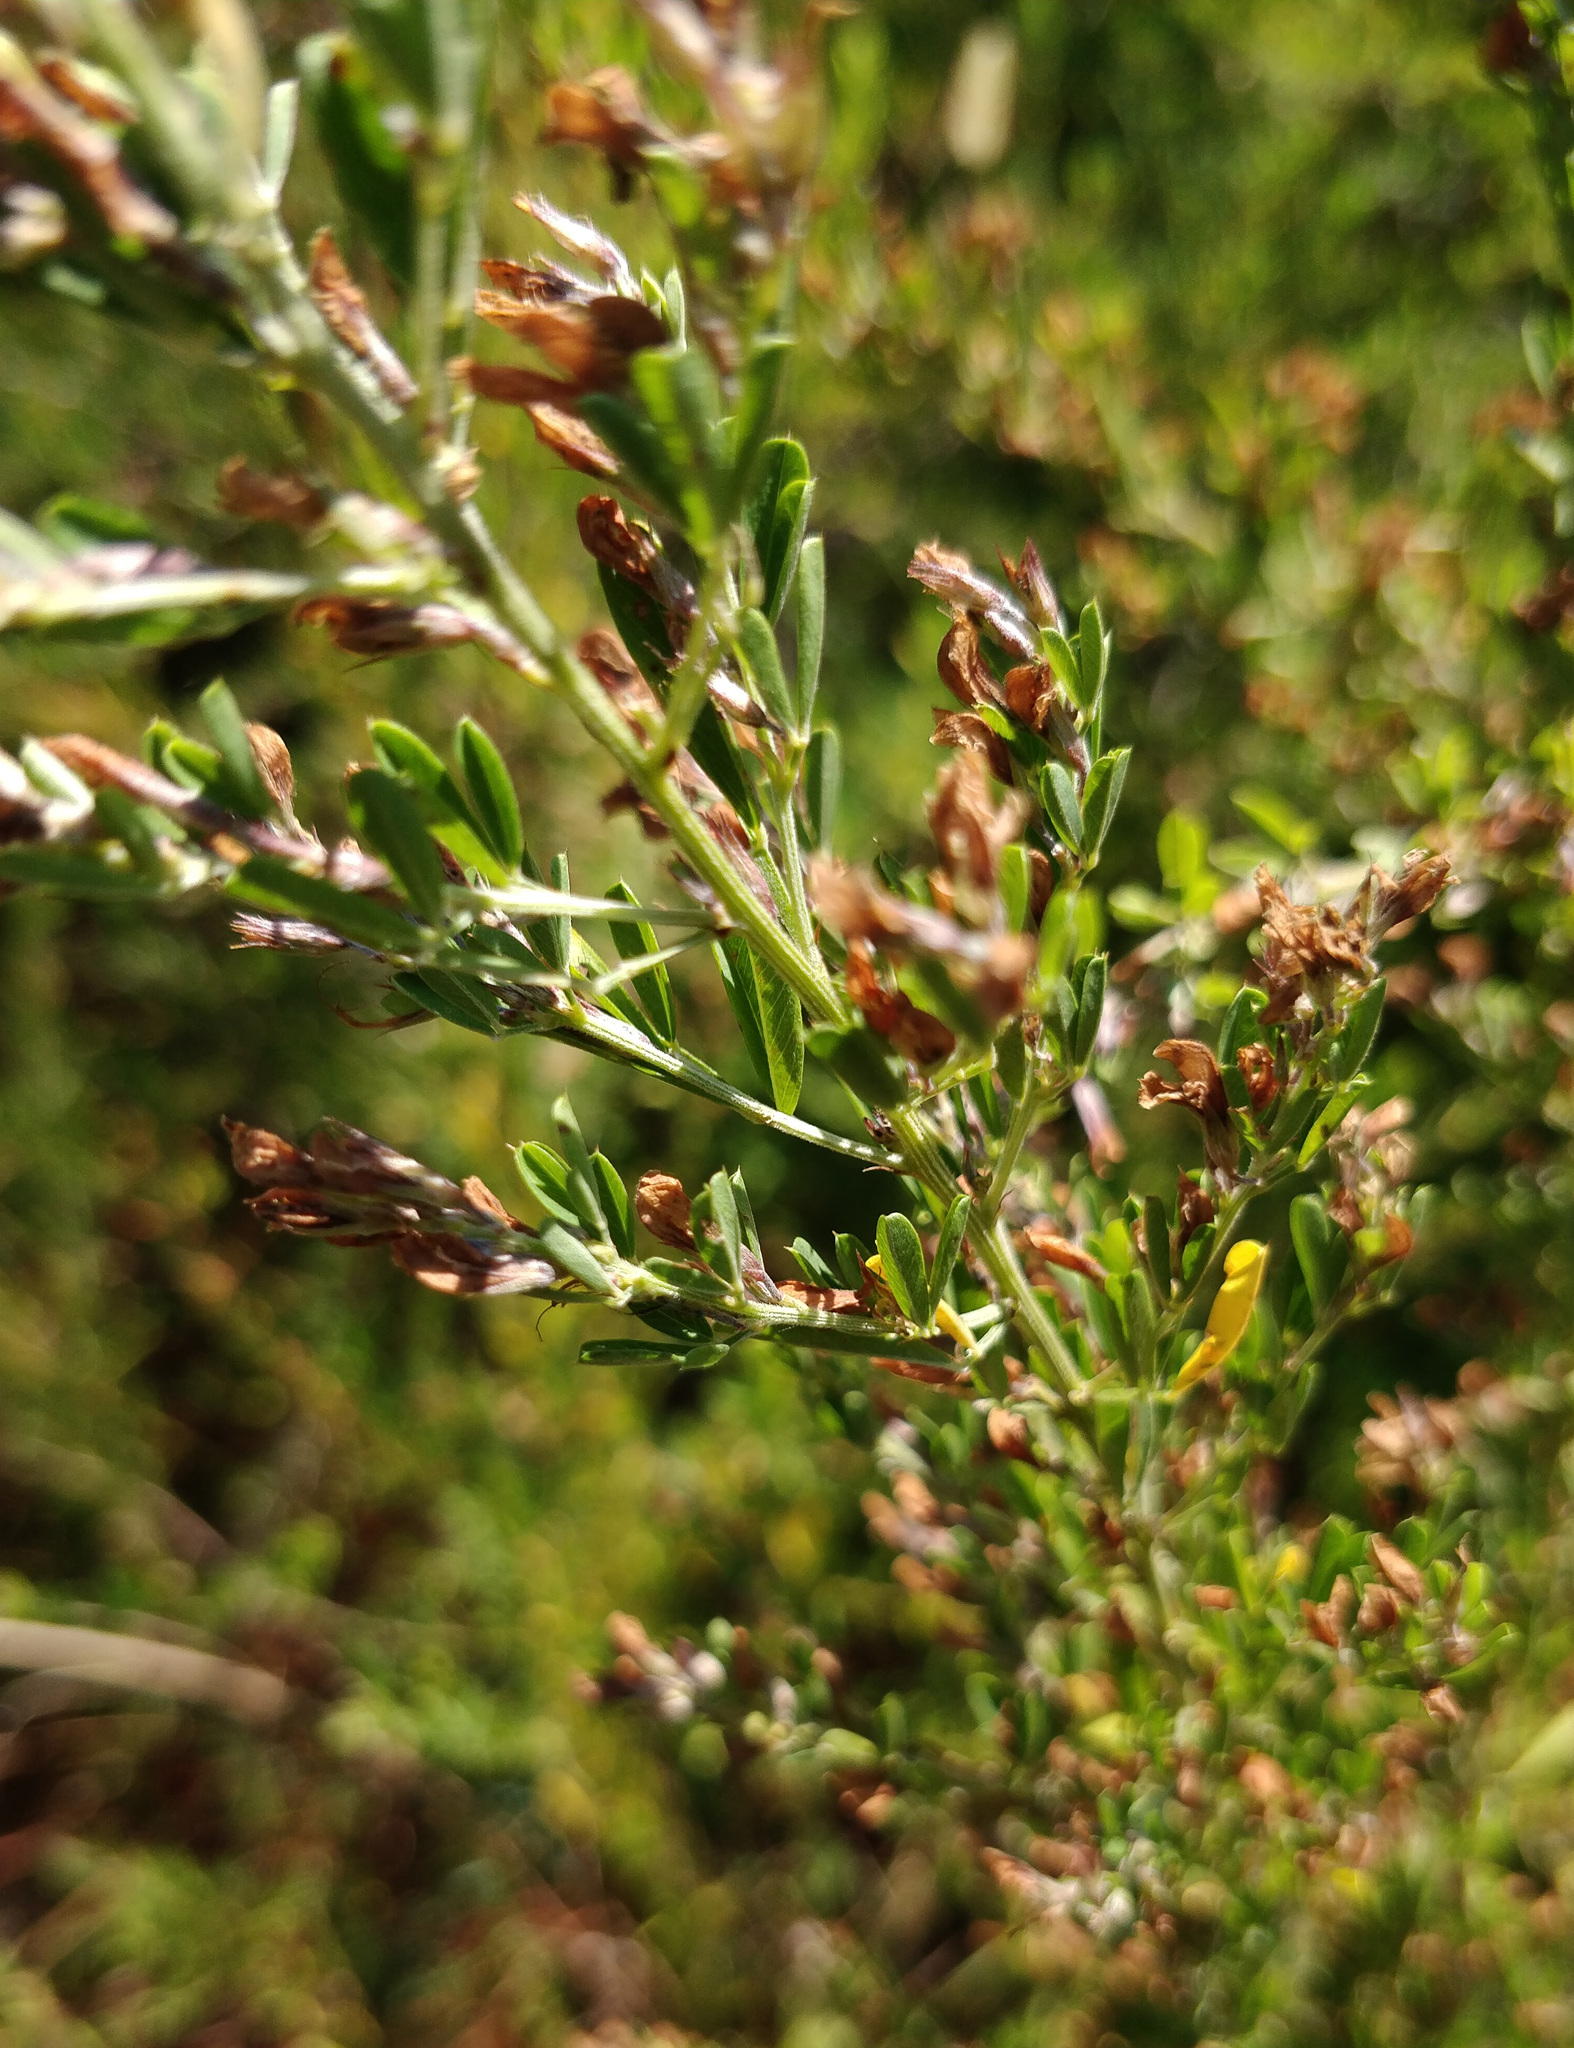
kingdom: Plantae
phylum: Tracheophyta
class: Magnoliopsida
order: Fabales
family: Fabaceae
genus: Lespedeza
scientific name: Lespedeza cuneata
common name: Chinese bush-clover
